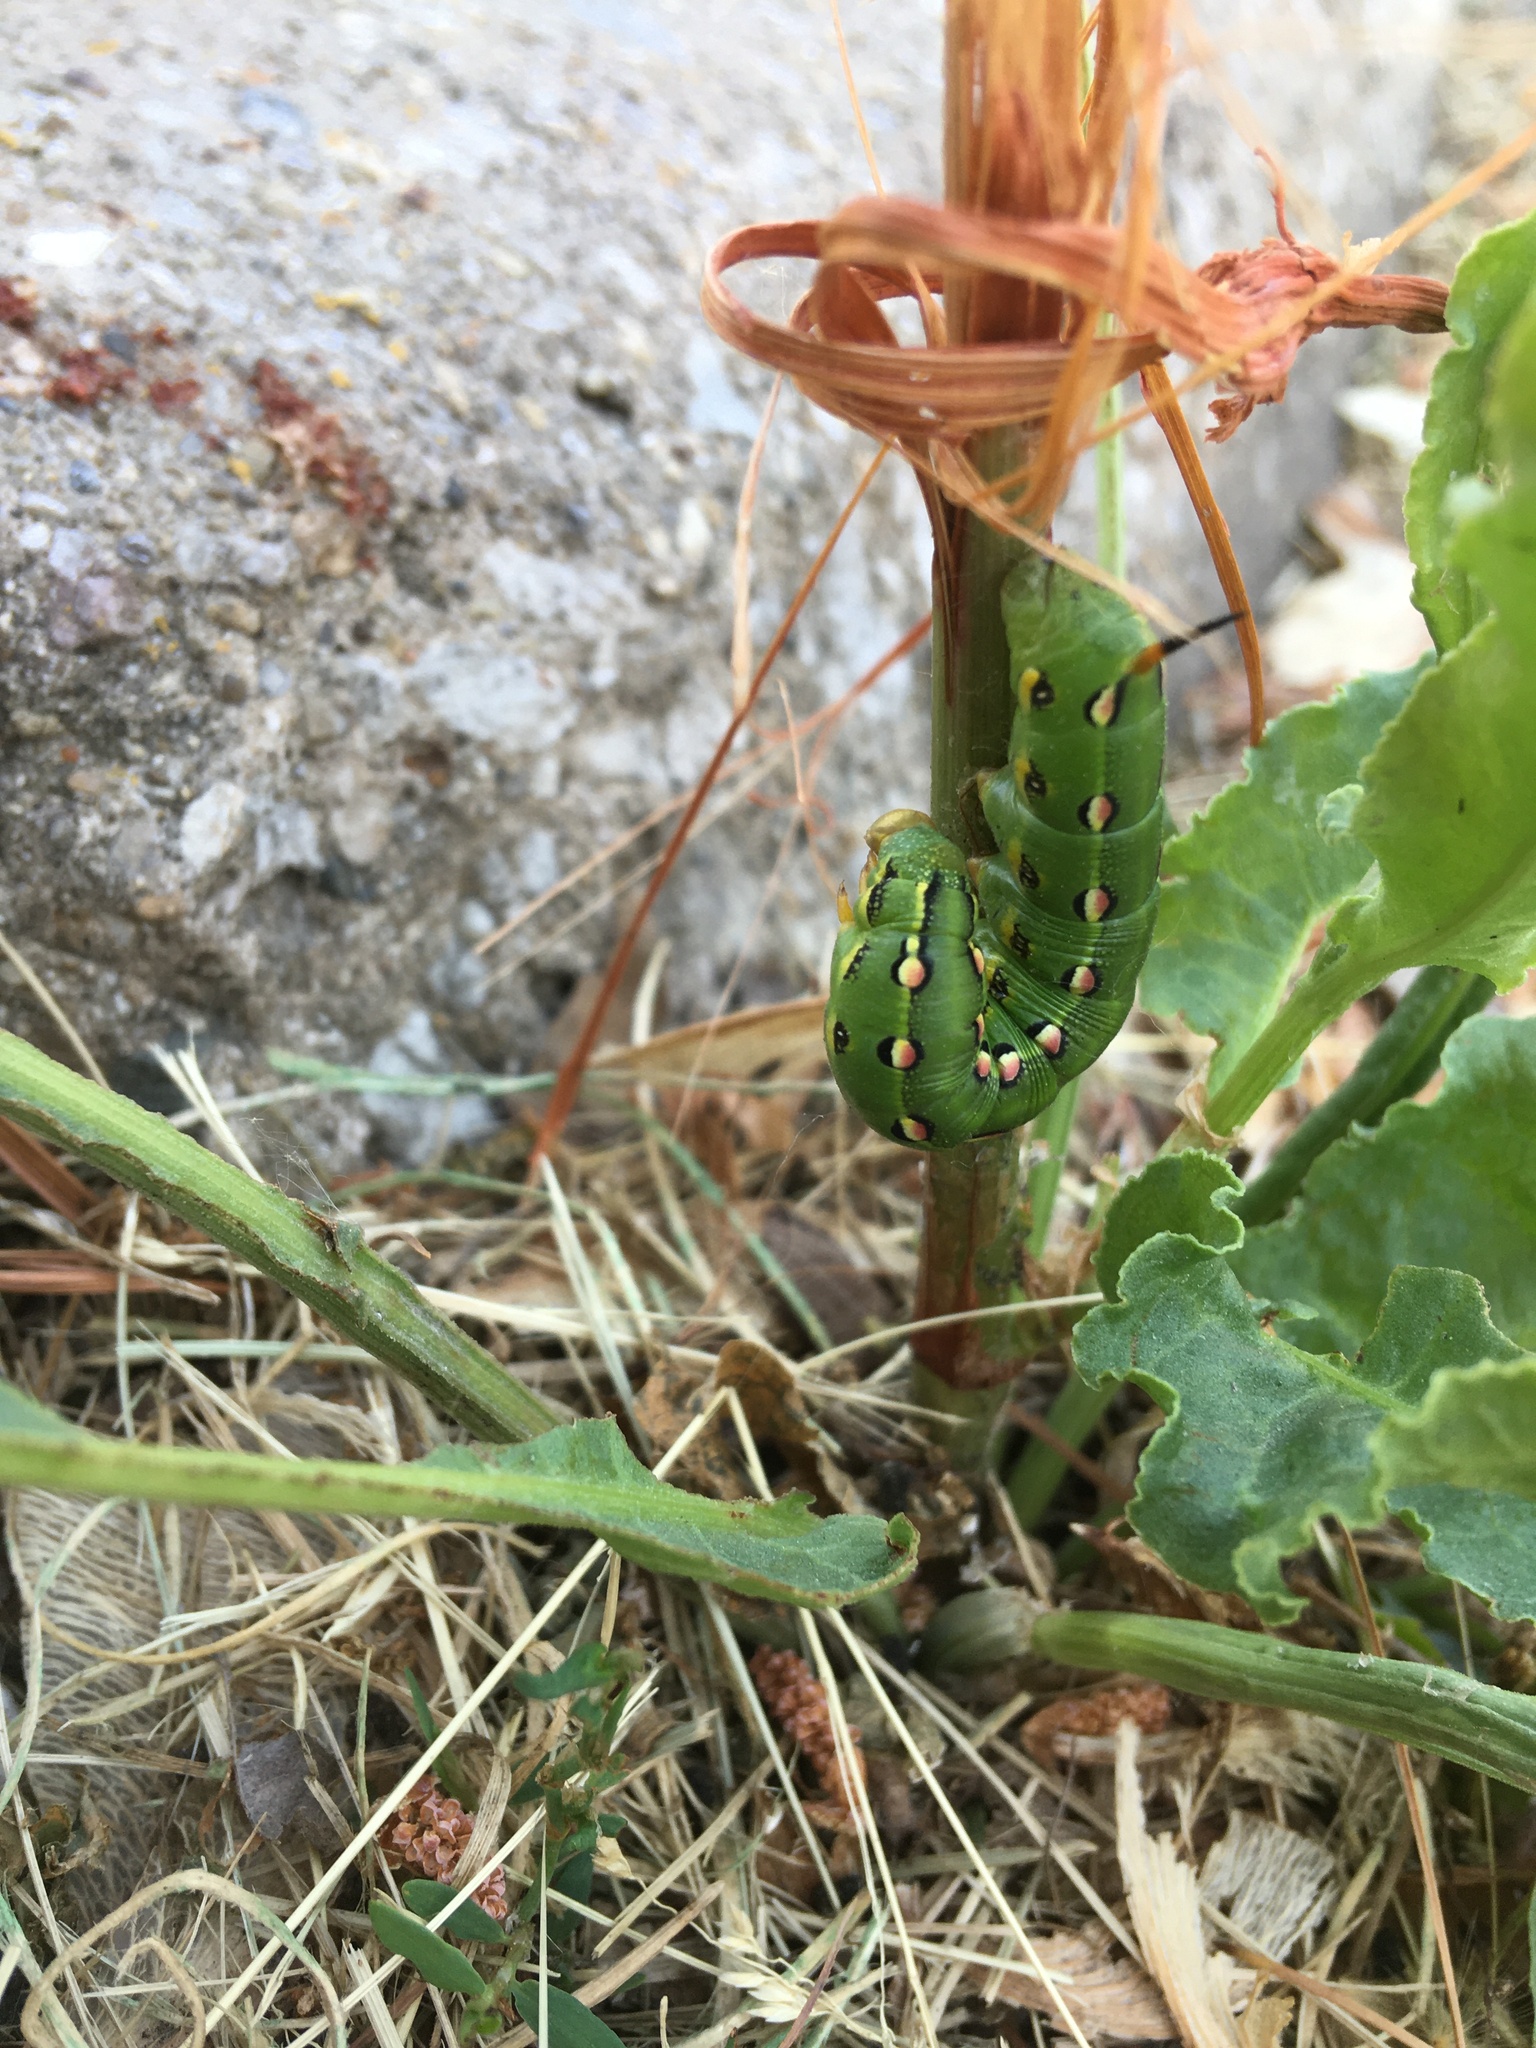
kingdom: Animalia
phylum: Arthropoda
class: Insecta
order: Lepidoptera
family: Sphingidae
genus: Hyles
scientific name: Hyles lineata
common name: White-lined sphinx
